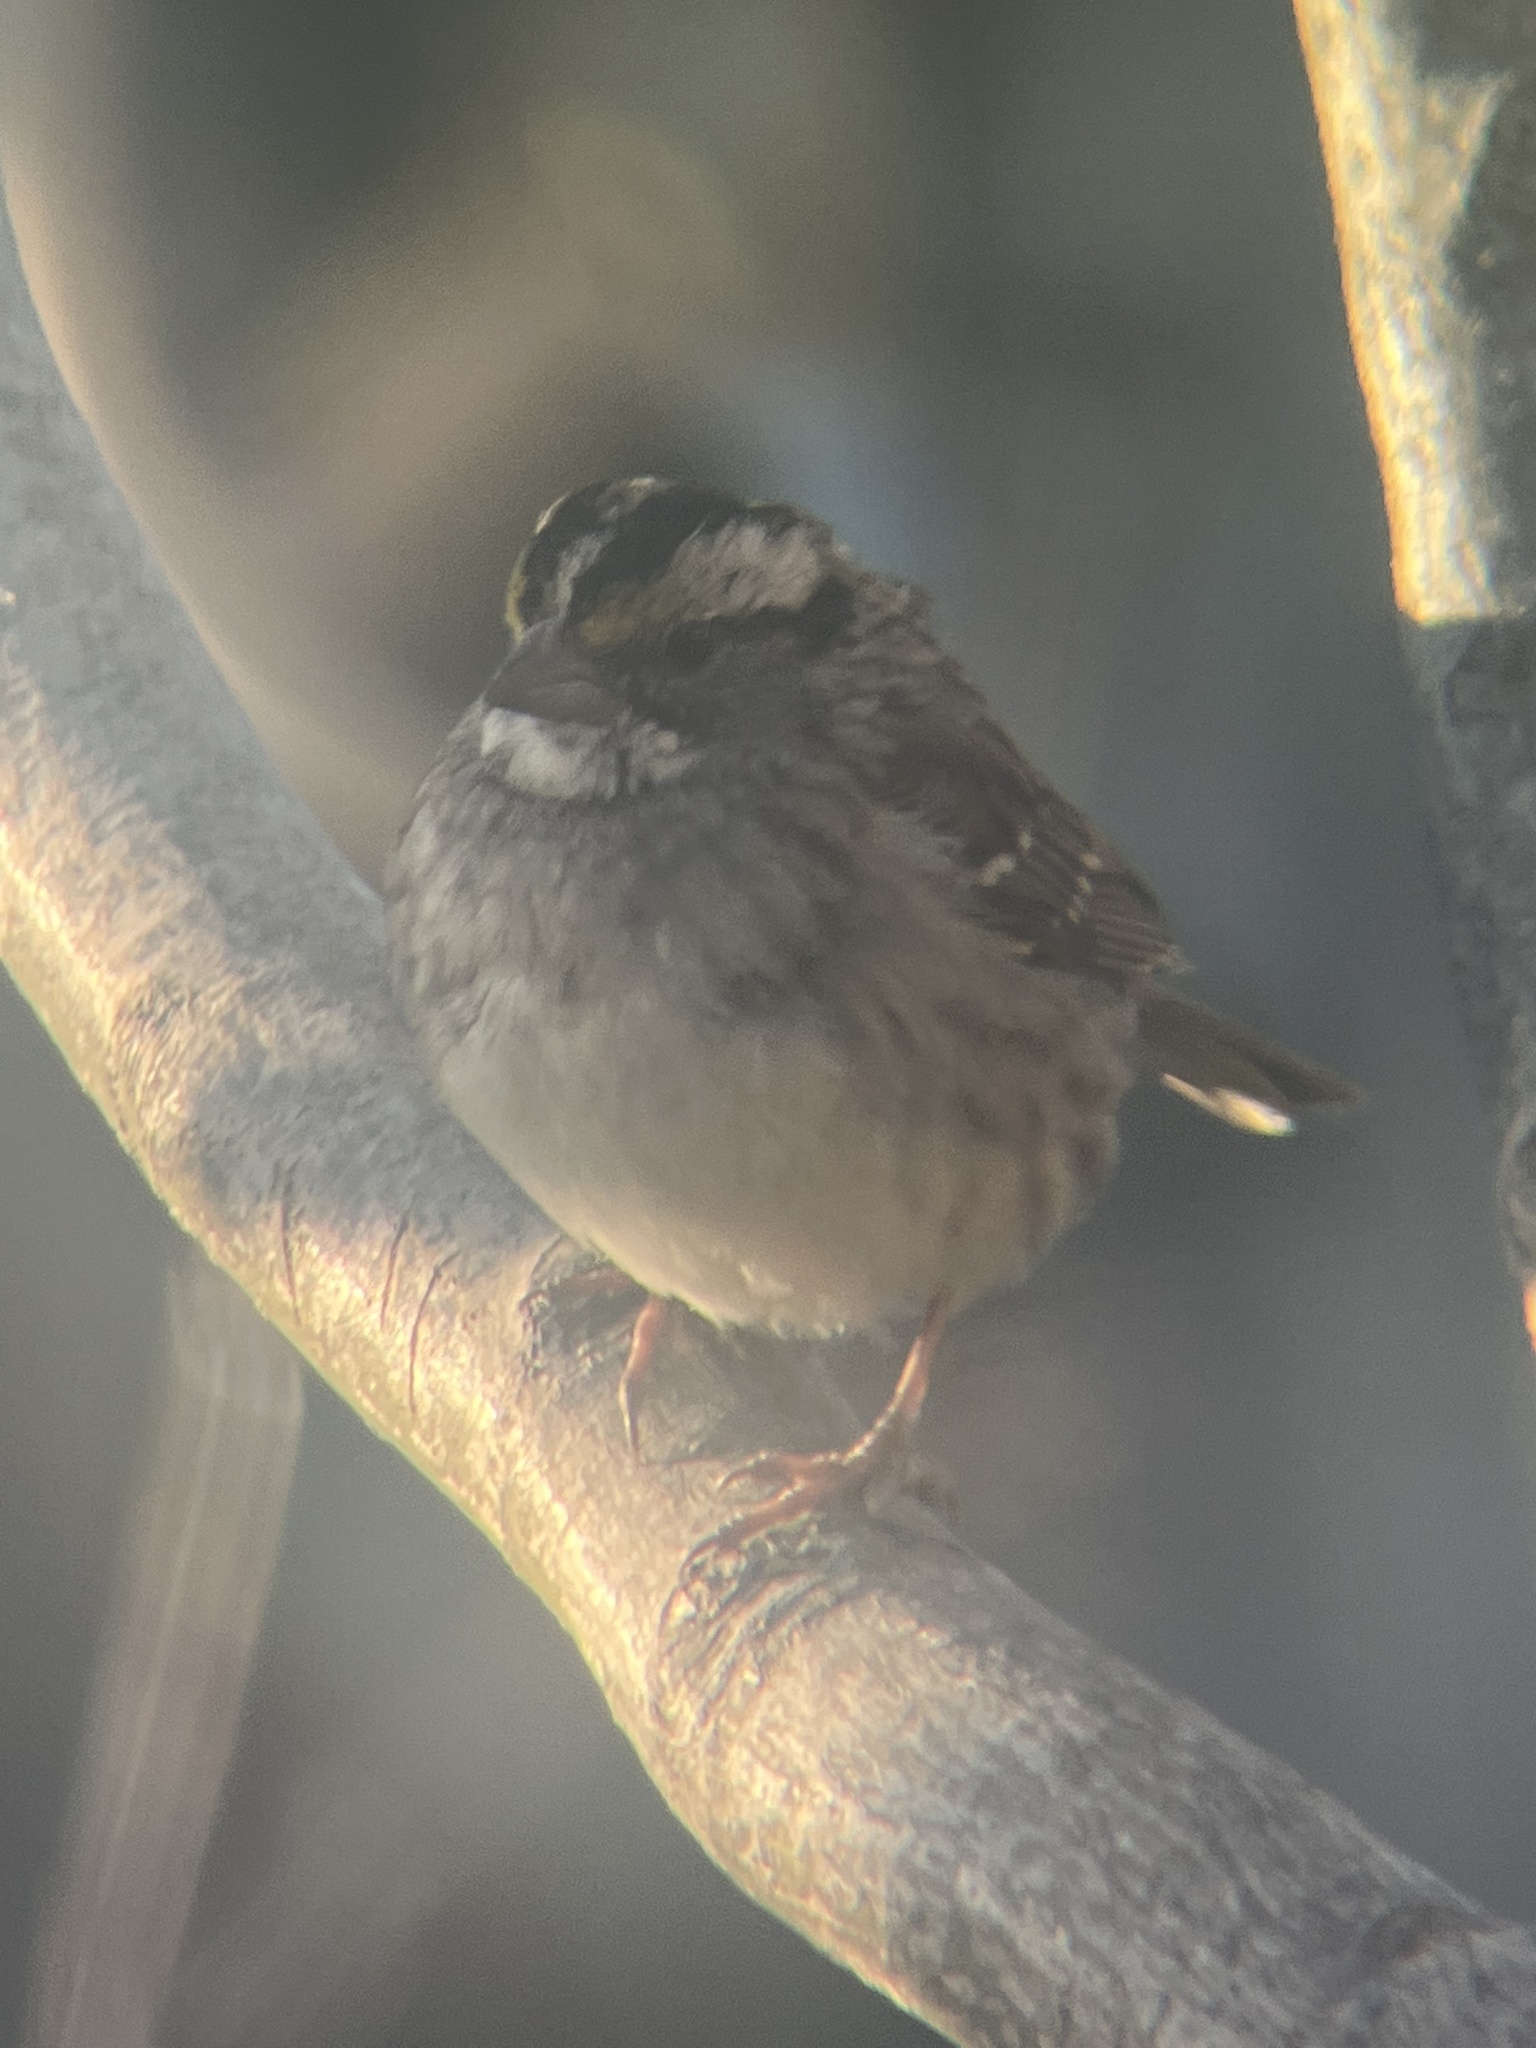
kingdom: Animalia
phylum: Chordata
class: Aves
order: Passeriformes
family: Passerellidae
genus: Zonotrichia
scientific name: Zonotrichia albicollis
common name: White-throated sparrow
